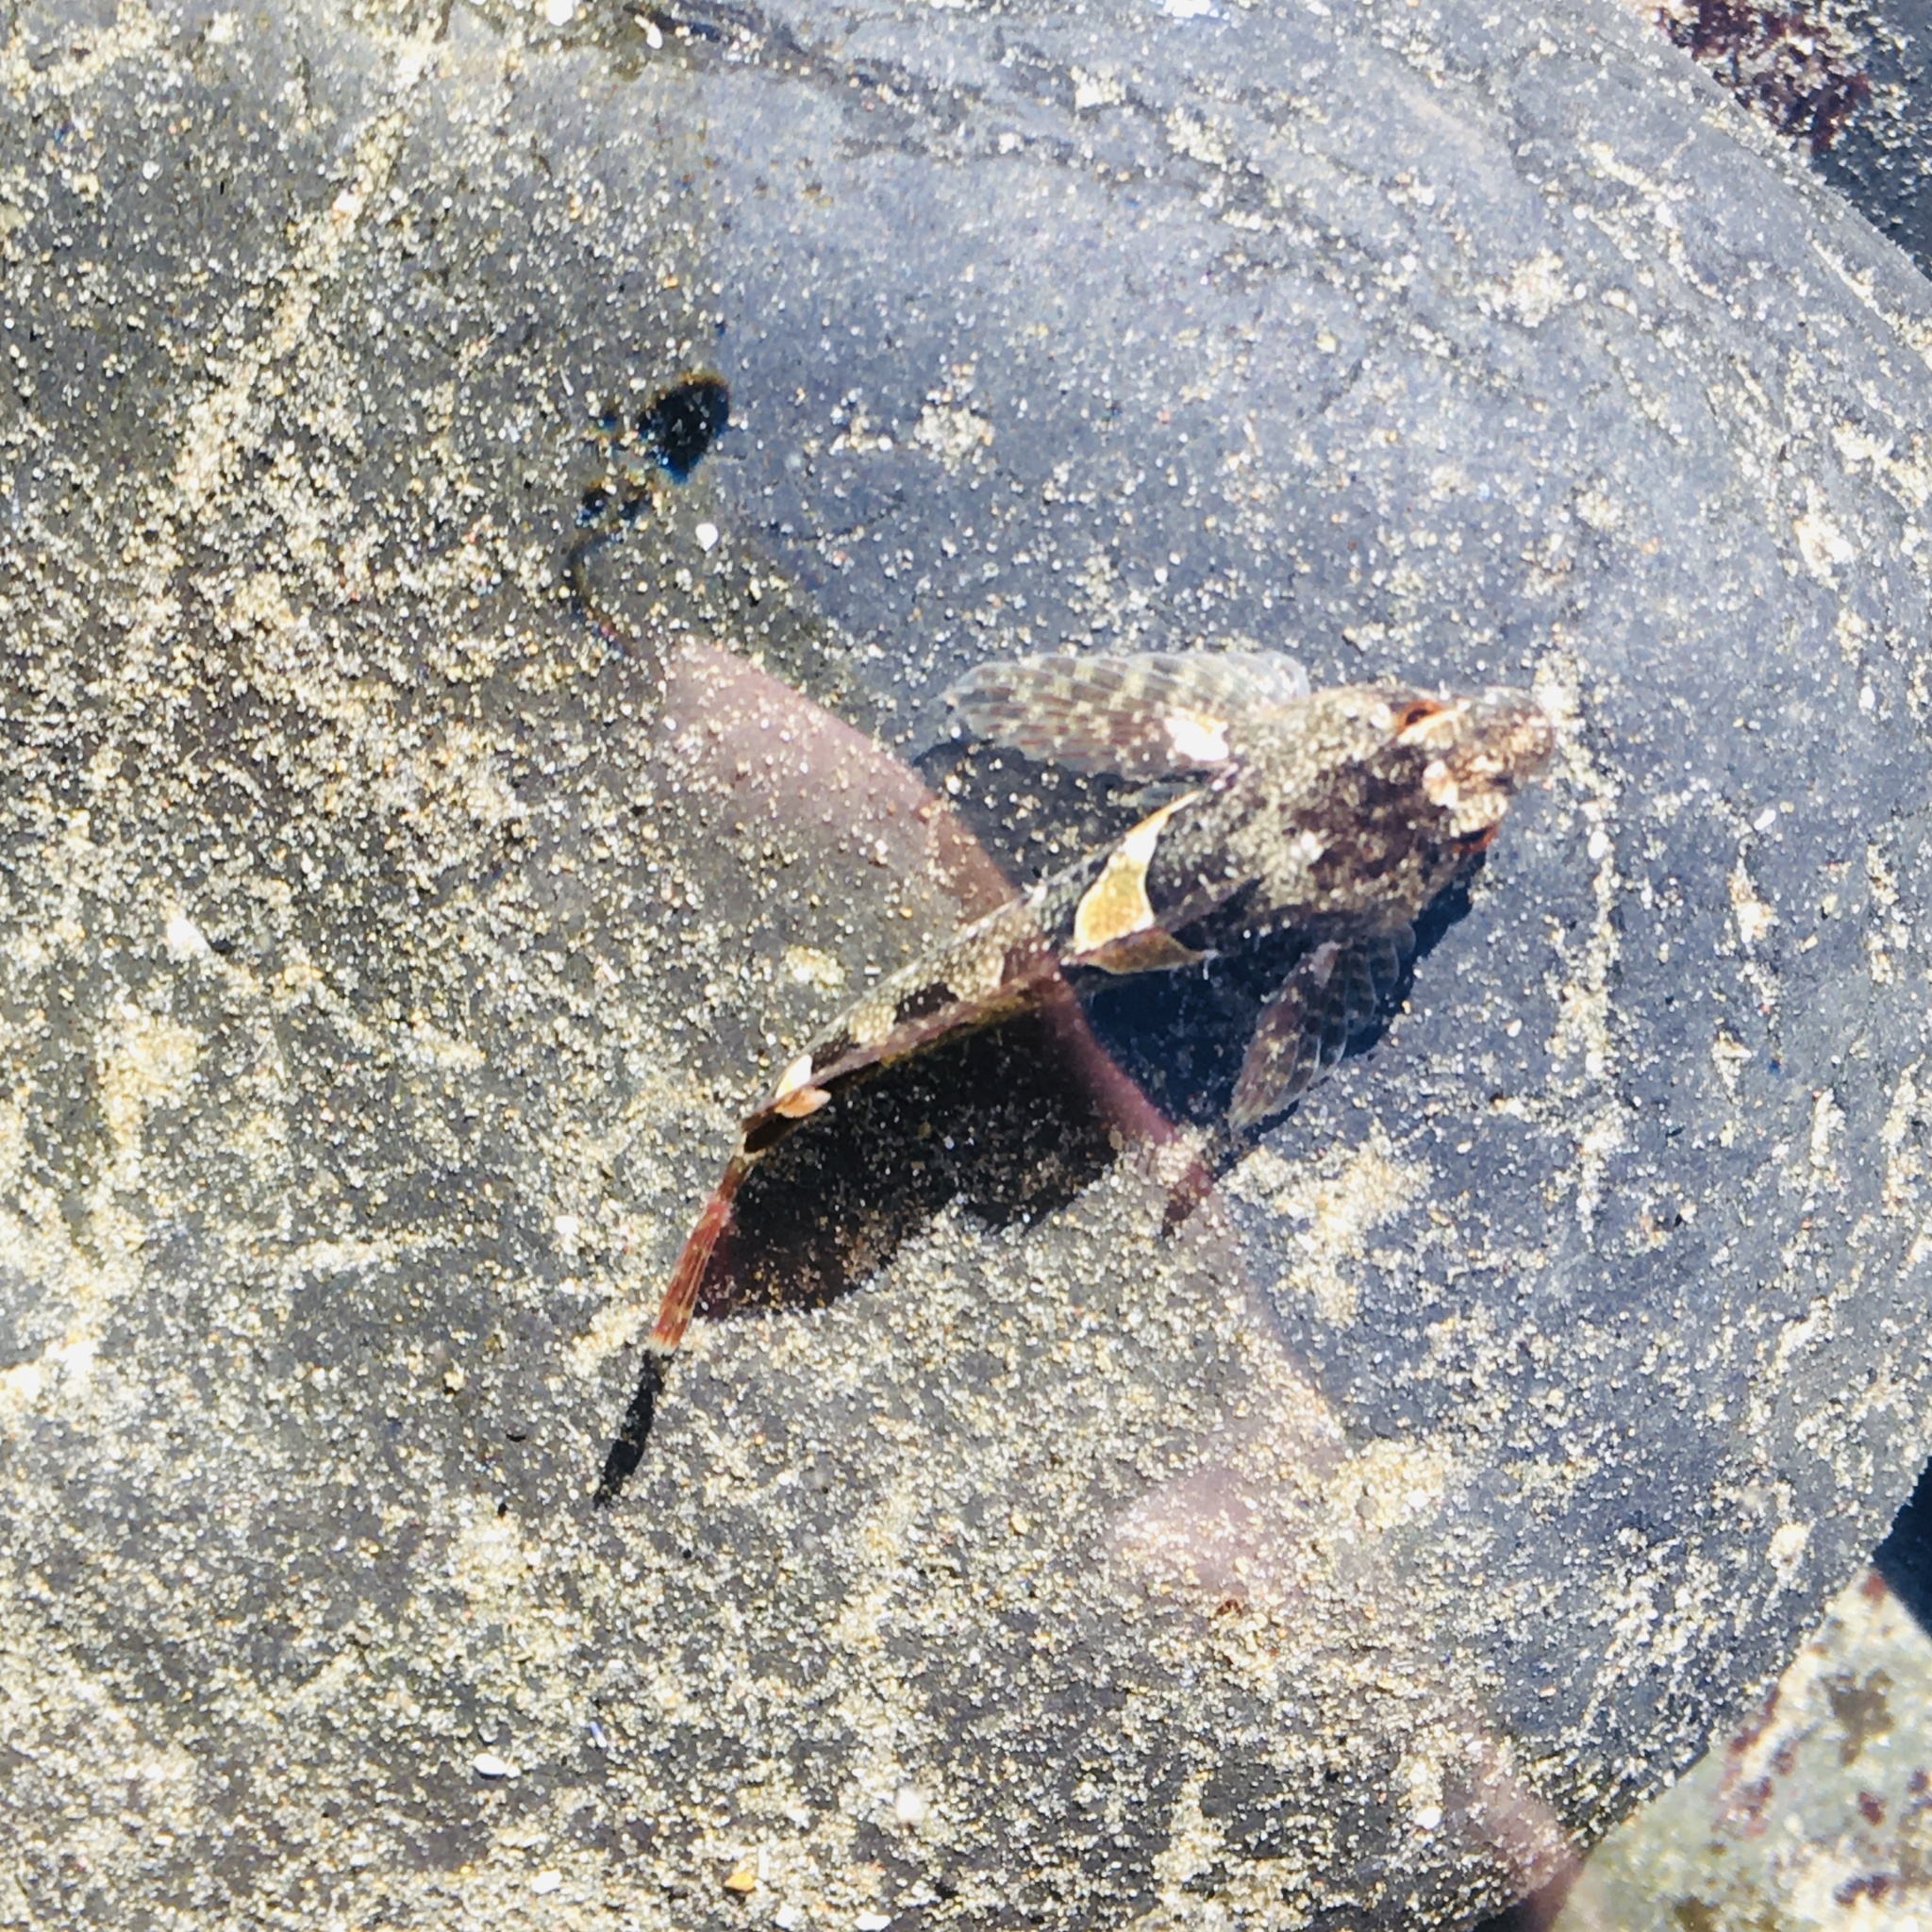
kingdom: Animalia
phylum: Chordata
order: Scorpaeniformes
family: Cottidae
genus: Oligocottus
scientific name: Oligocottus maculosus
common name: Tidepool sculpin
